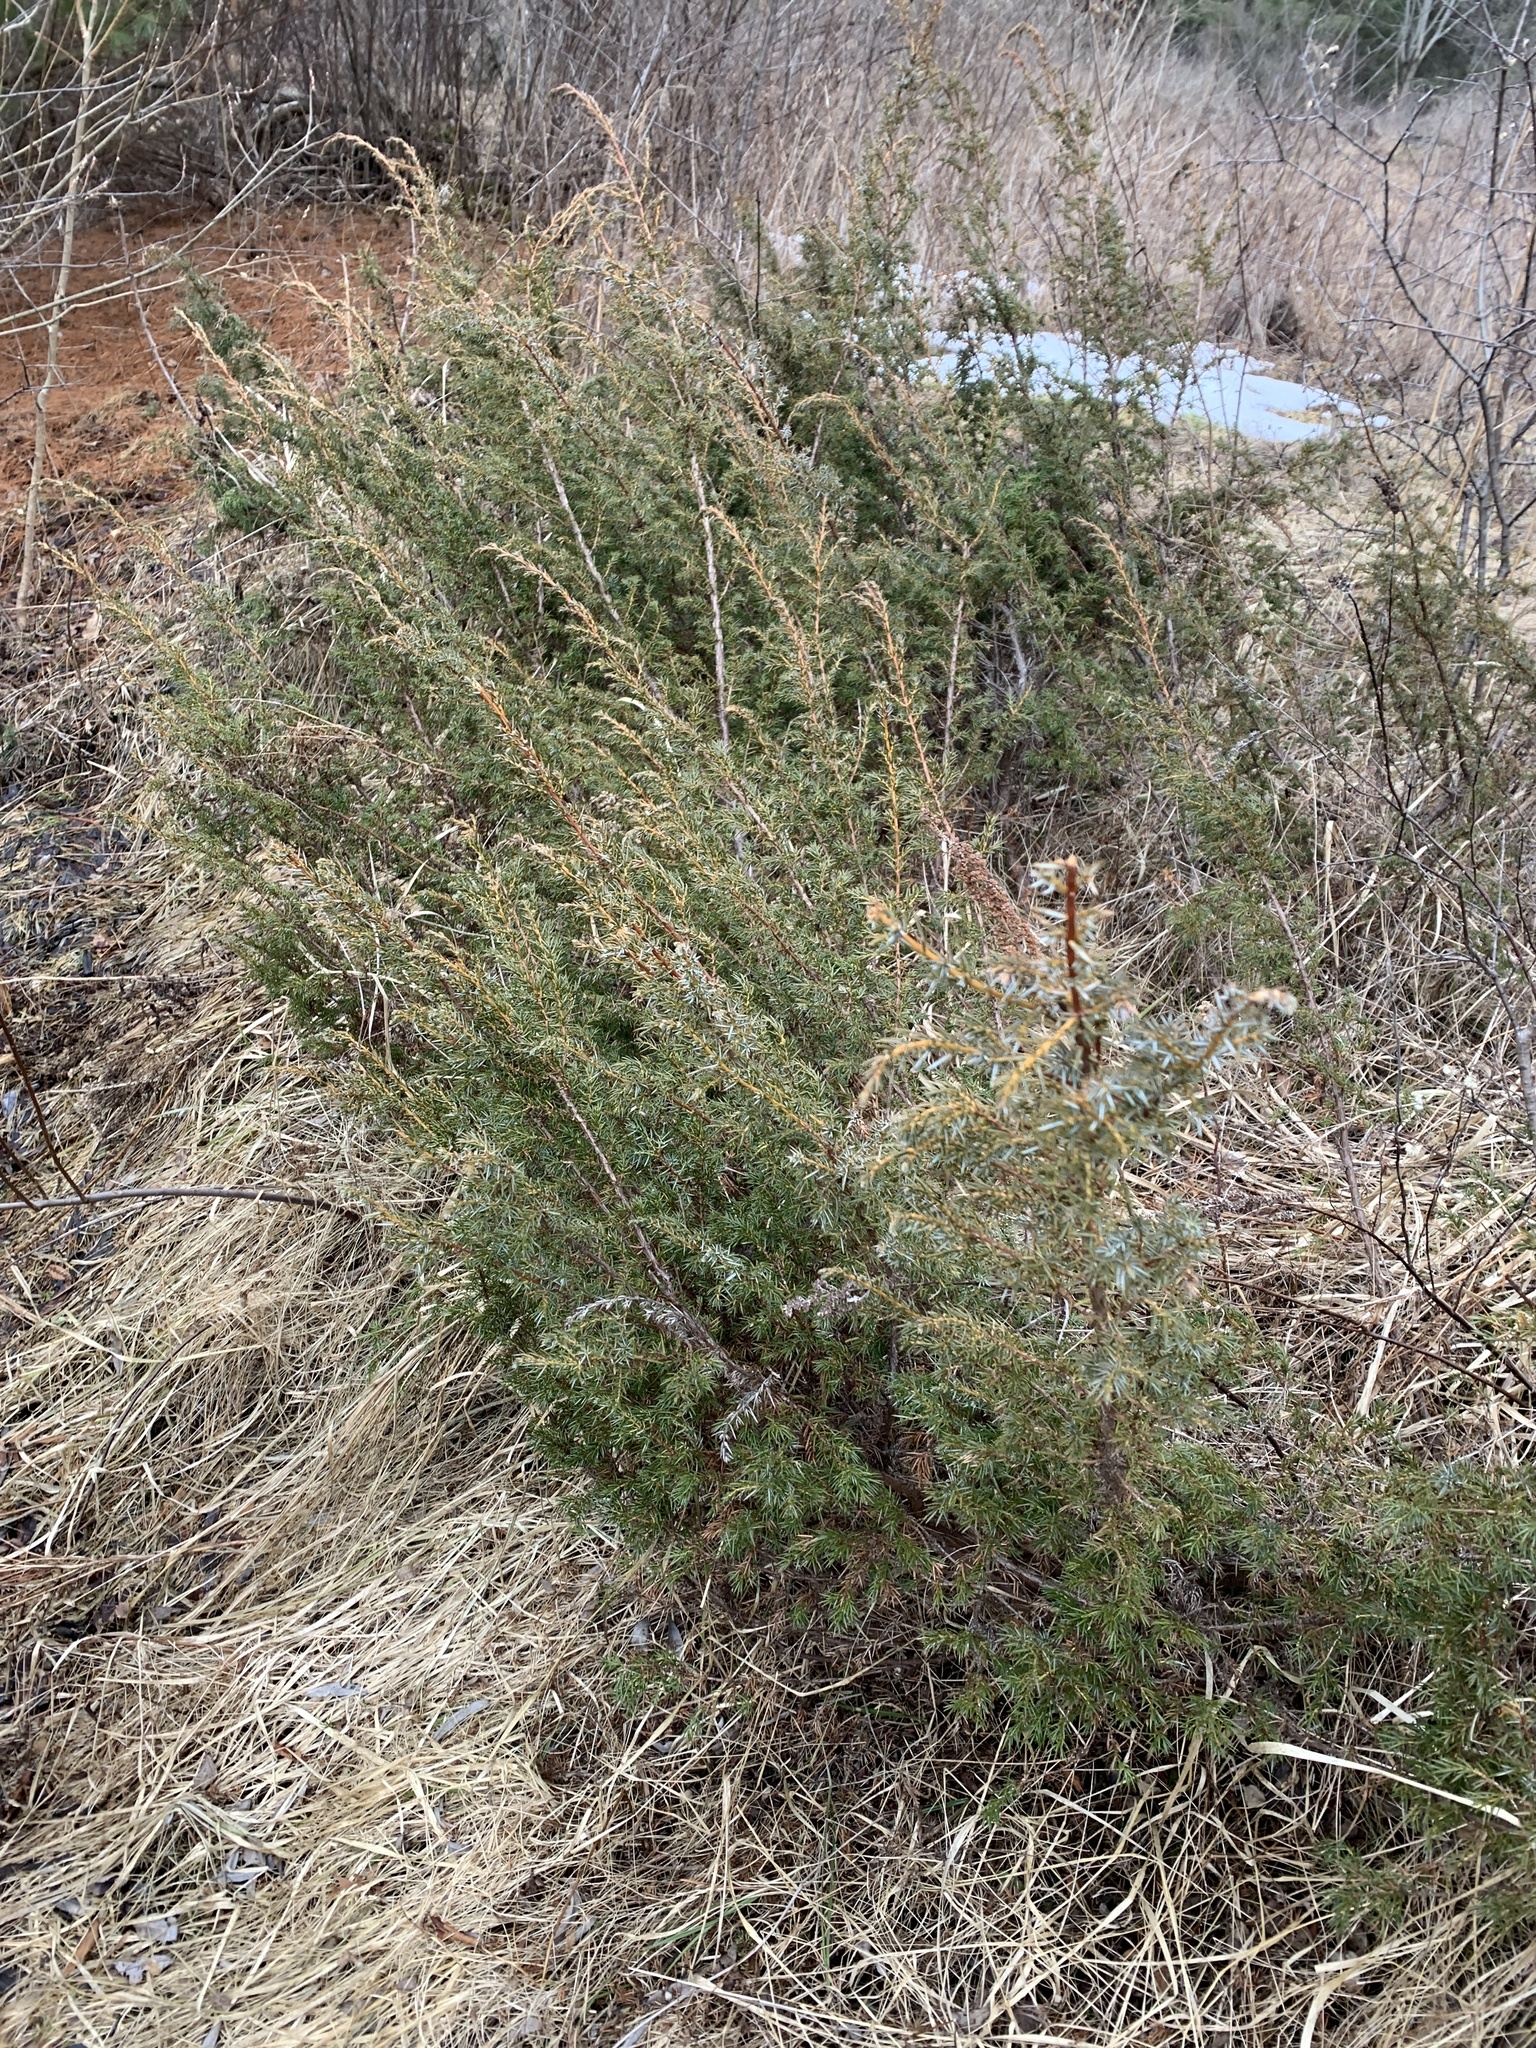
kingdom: Plantae
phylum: Tracheophyta
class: Pinopsida
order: Pinales
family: Cupressaceae
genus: Juniperus
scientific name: Juniperus communis
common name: Common juniper
